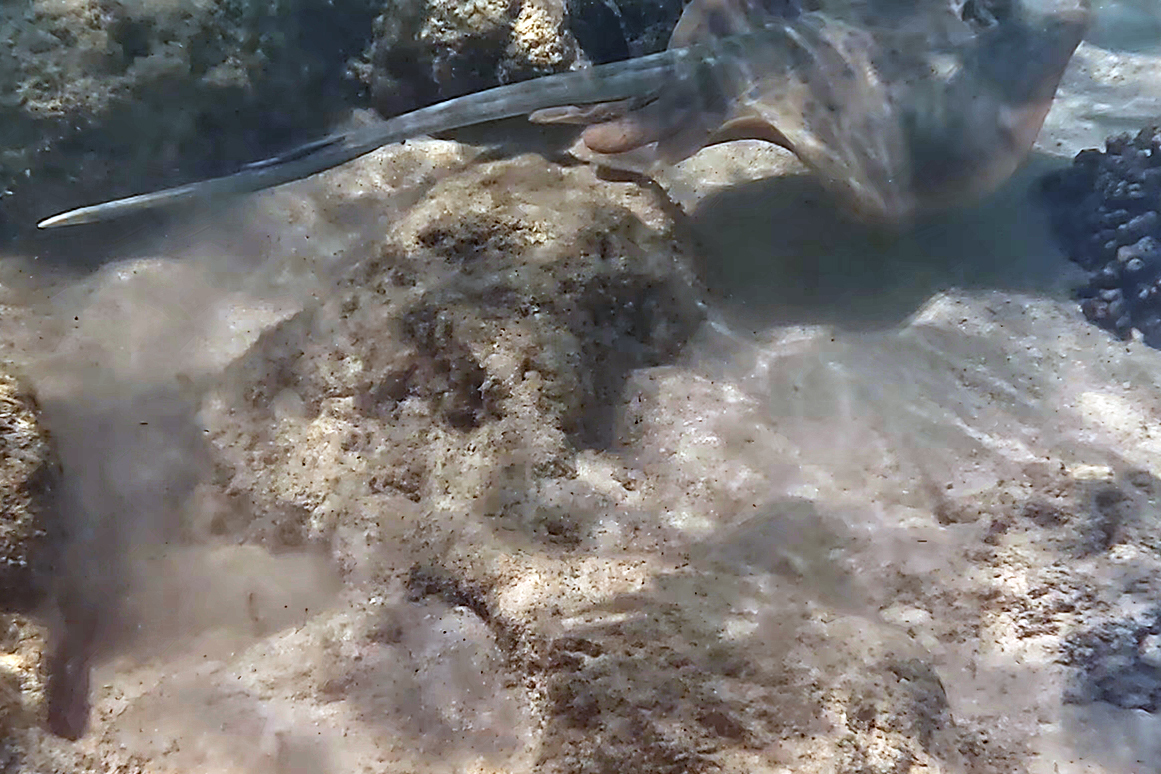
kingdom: Animalia
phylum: Chordata
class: Elasmobranchii
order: Myliobatiformes
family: Dasyatidae
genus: Neotrygon
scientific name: Neotrygon kuhlii
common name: Bluespotted stingray
